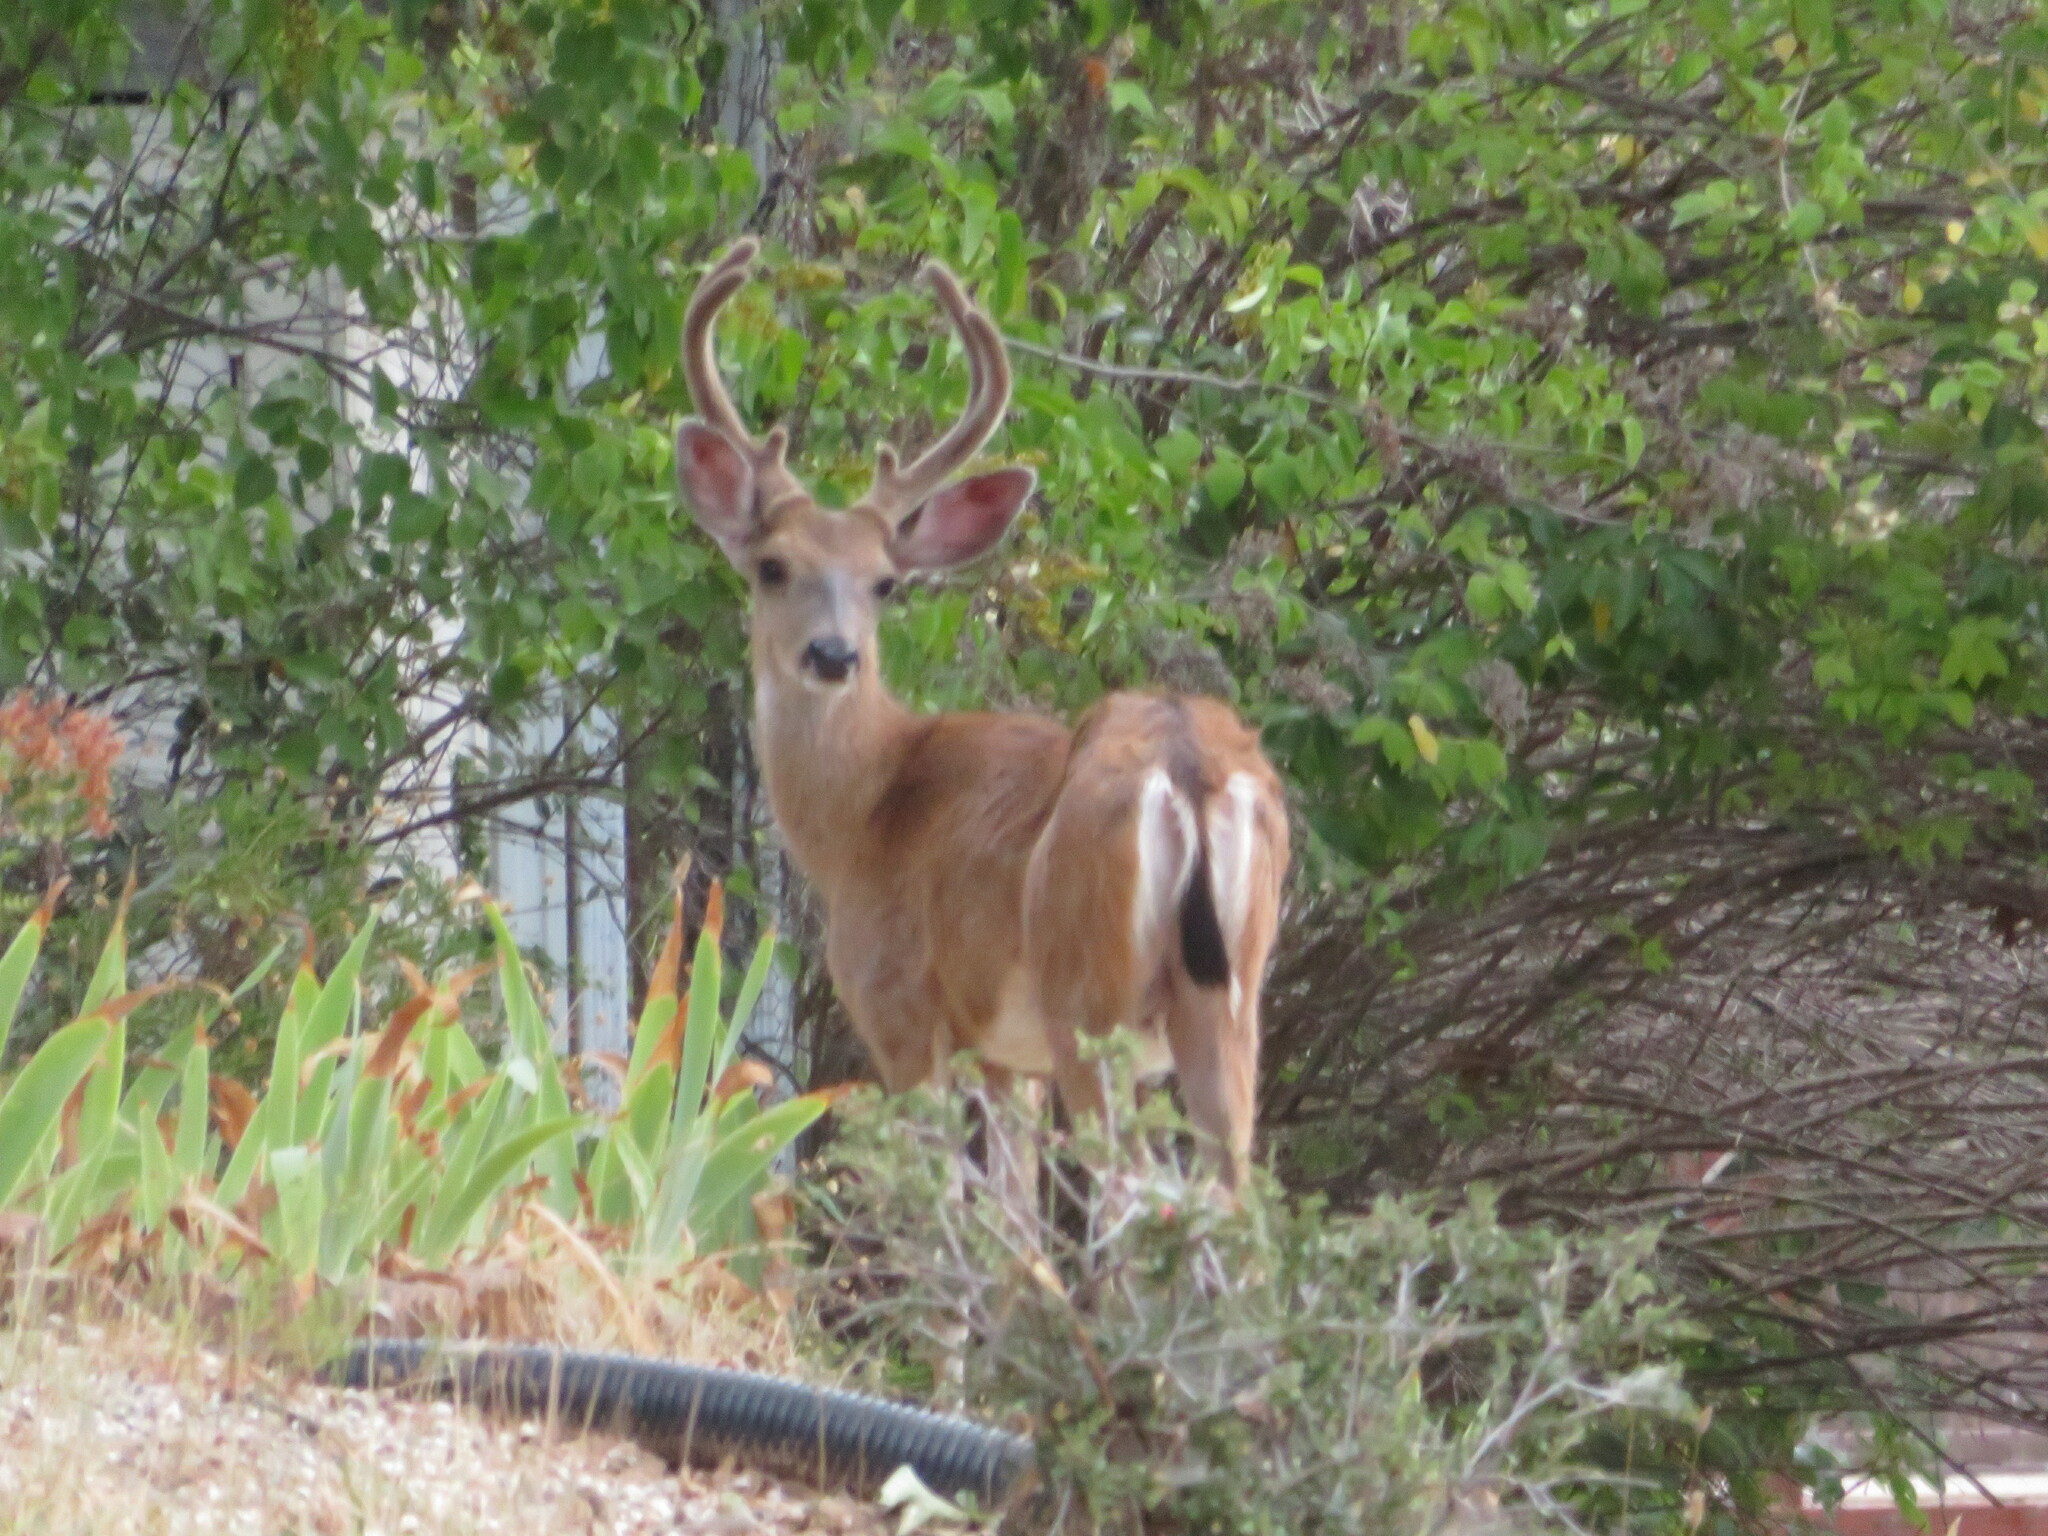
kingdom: Animalia
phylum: Chordata
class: Mammalia
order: Artiodactyla
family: Cervidae
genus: Odocoileus
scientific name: Odocoileus hemionus
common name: Mule deer
